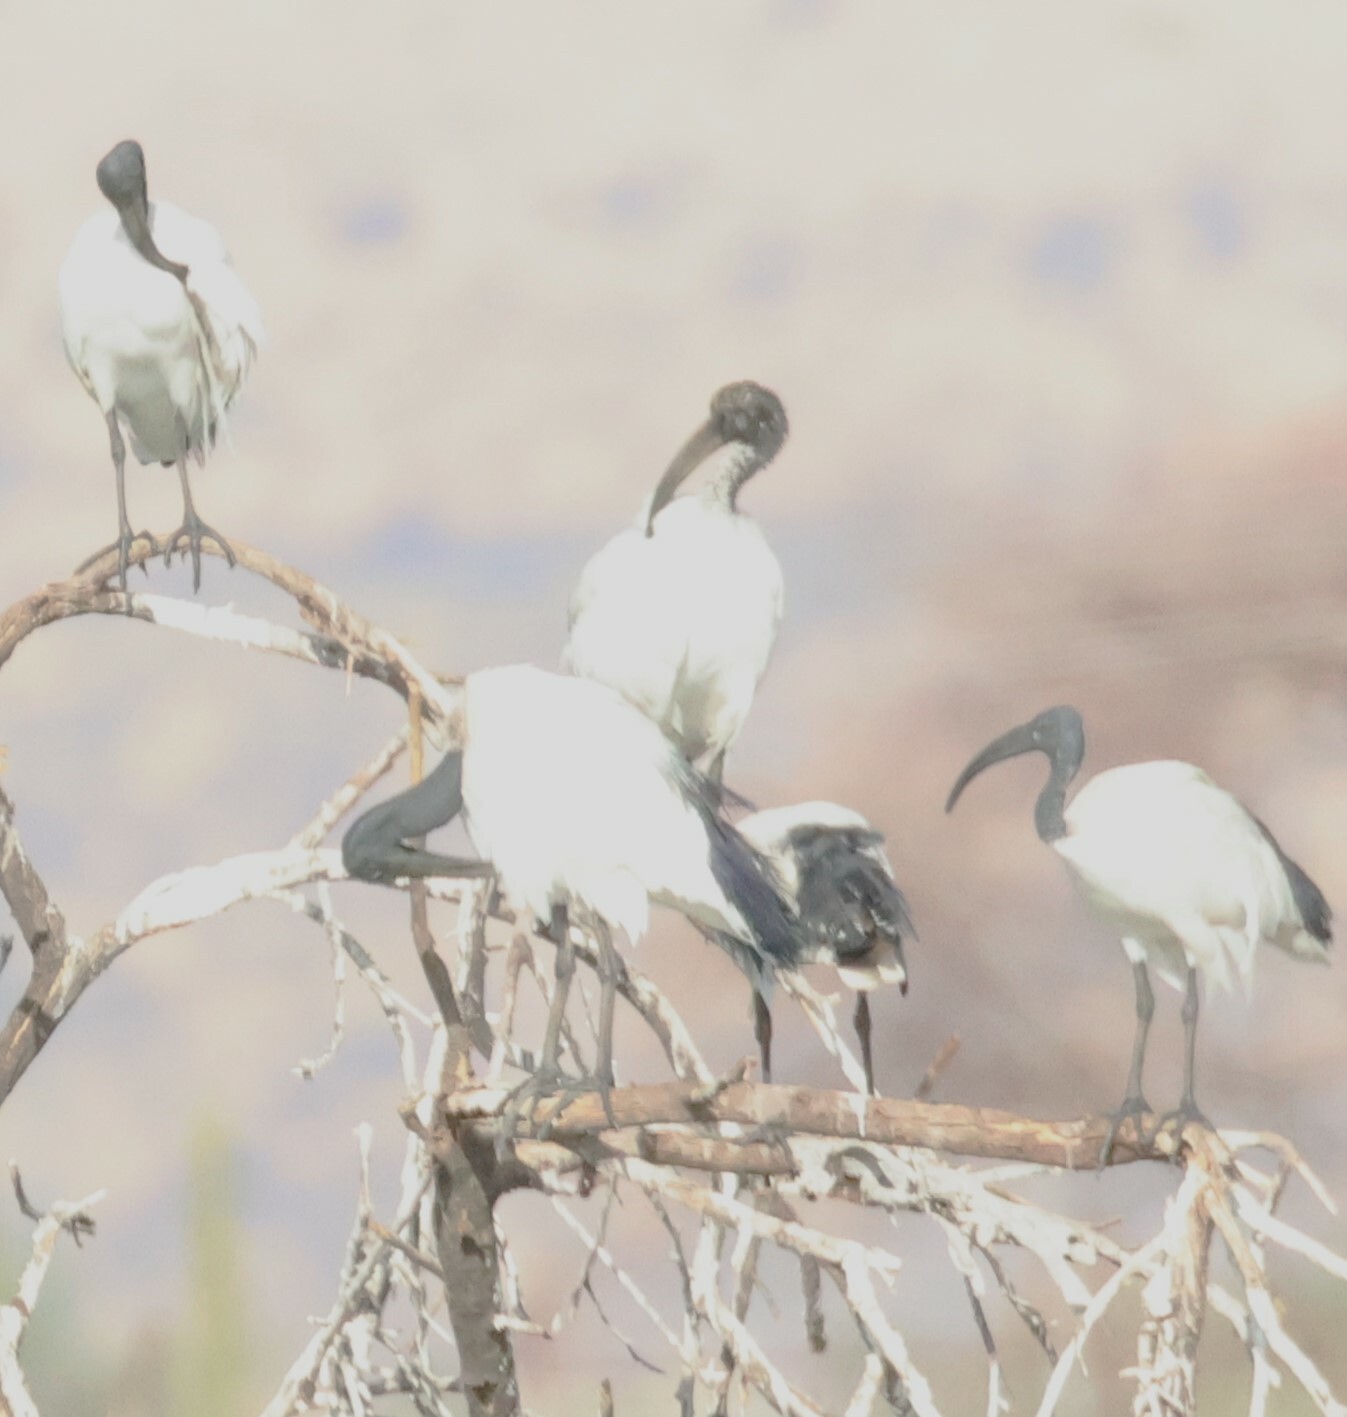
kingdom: Animalia
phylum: Chordata
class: Aves
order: Pelecaniformes
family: Threskiornithidae
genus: Threskiornis
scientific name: Threskiornis aethiopicus
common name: Sacred ibis
